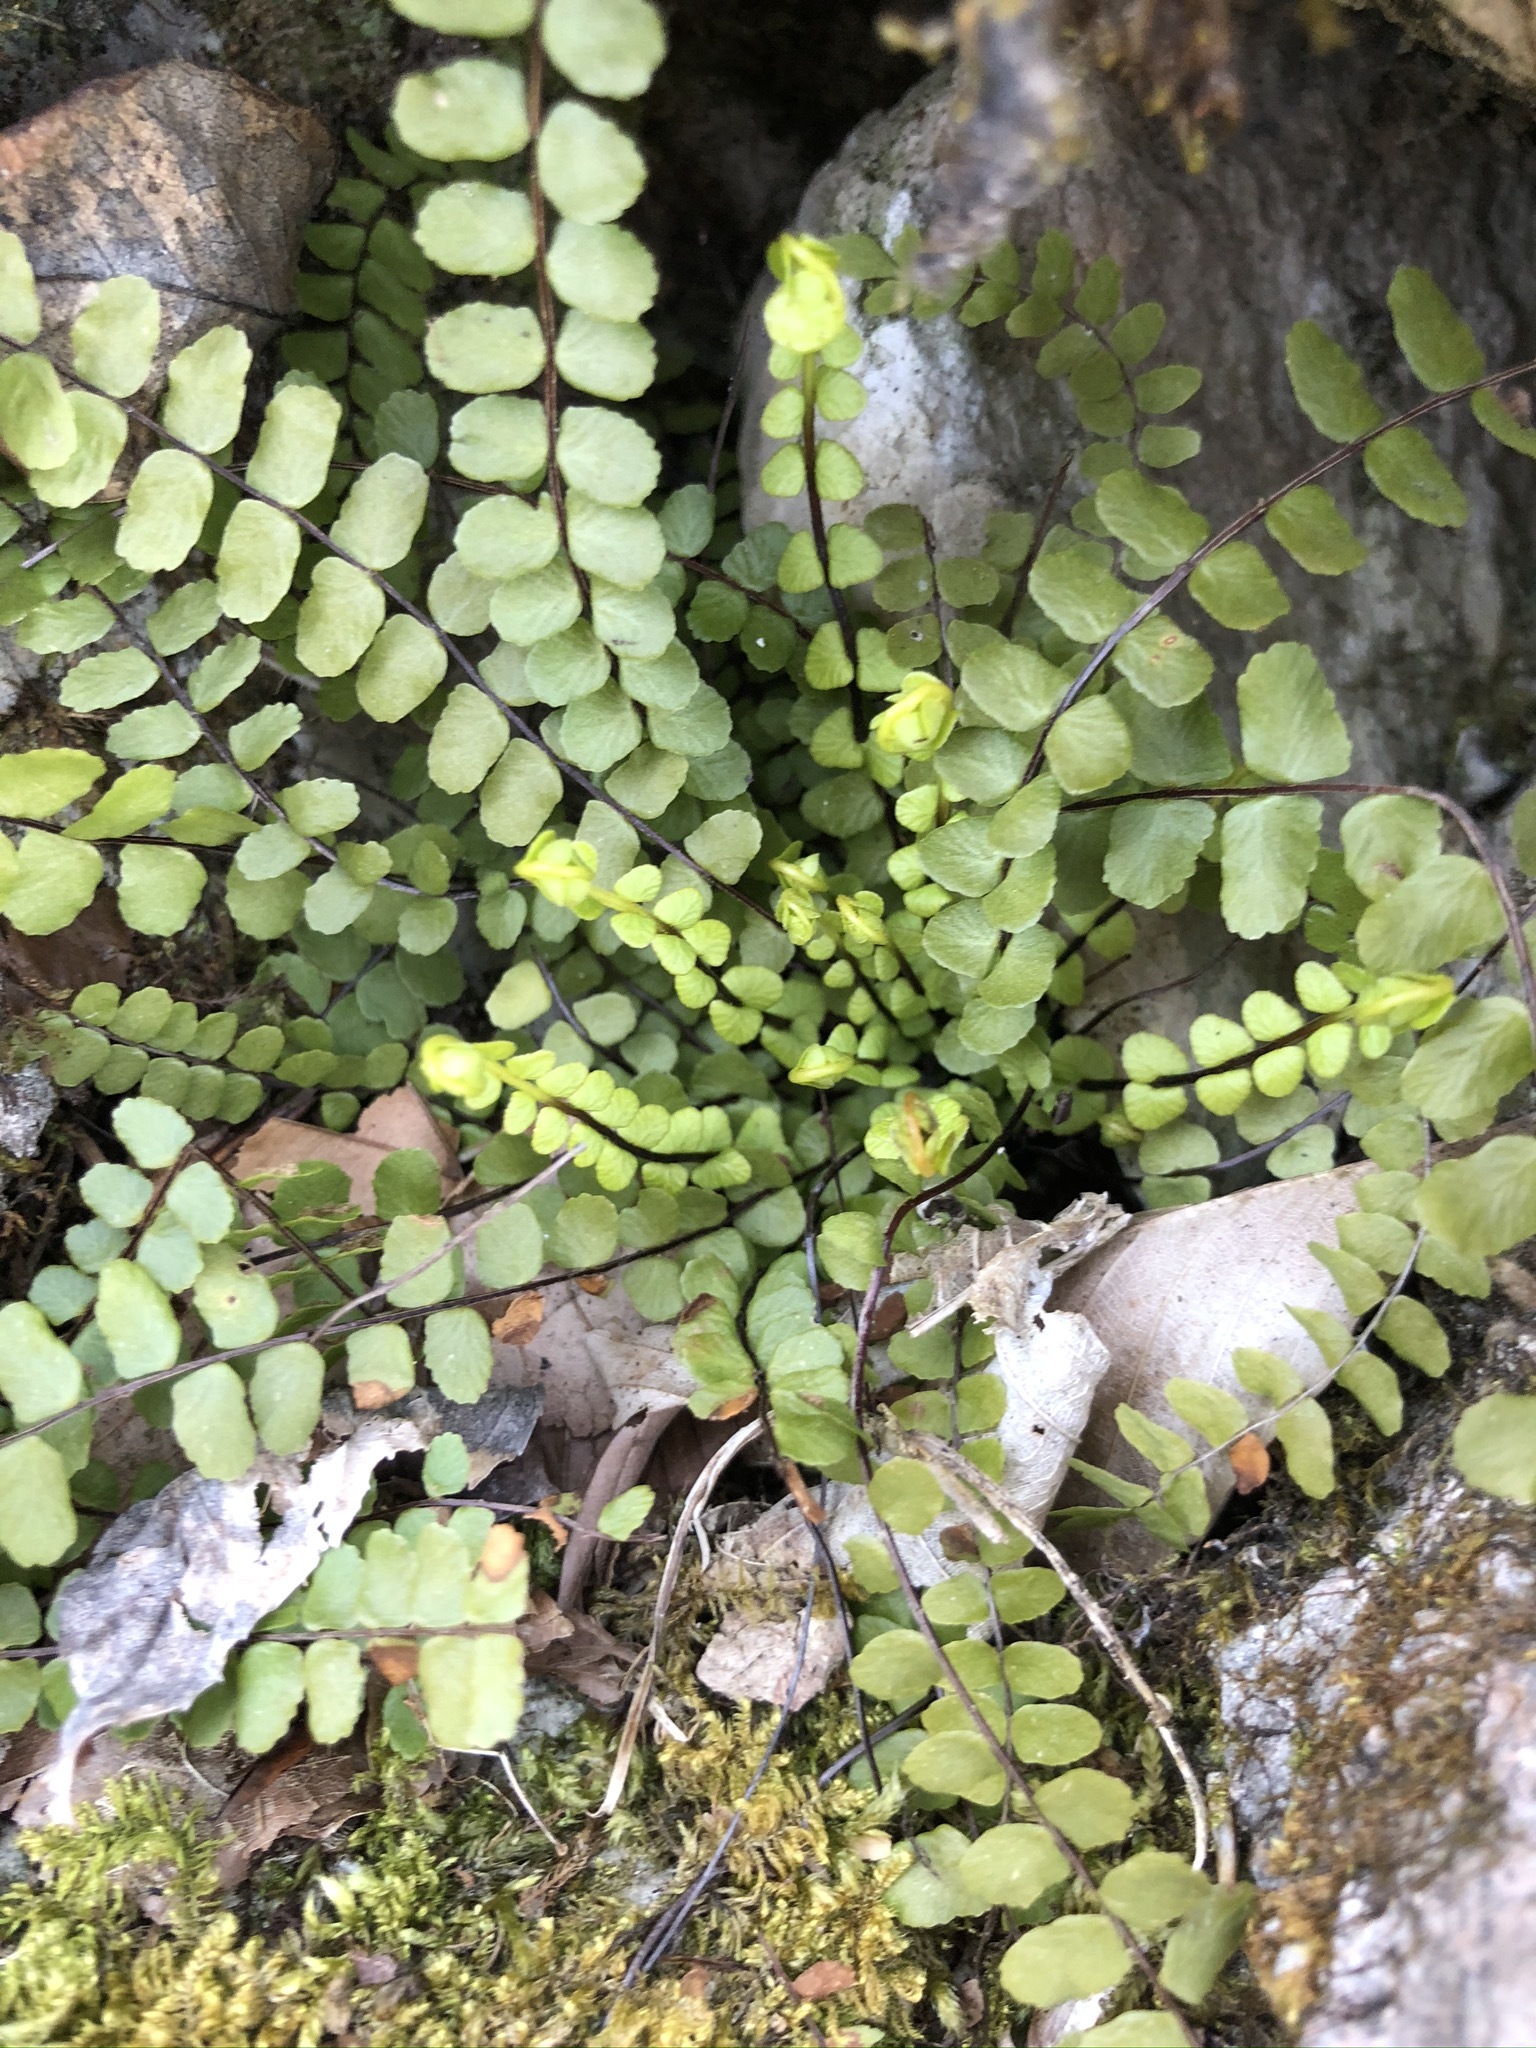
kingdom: Plantae
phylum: Tracheophyta
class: Polypodiopsida
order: Polypodiales
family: Aspleniaceae
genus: Asplenium
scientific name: Asplenium trichomanes
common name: Maidenhair spleenwort
